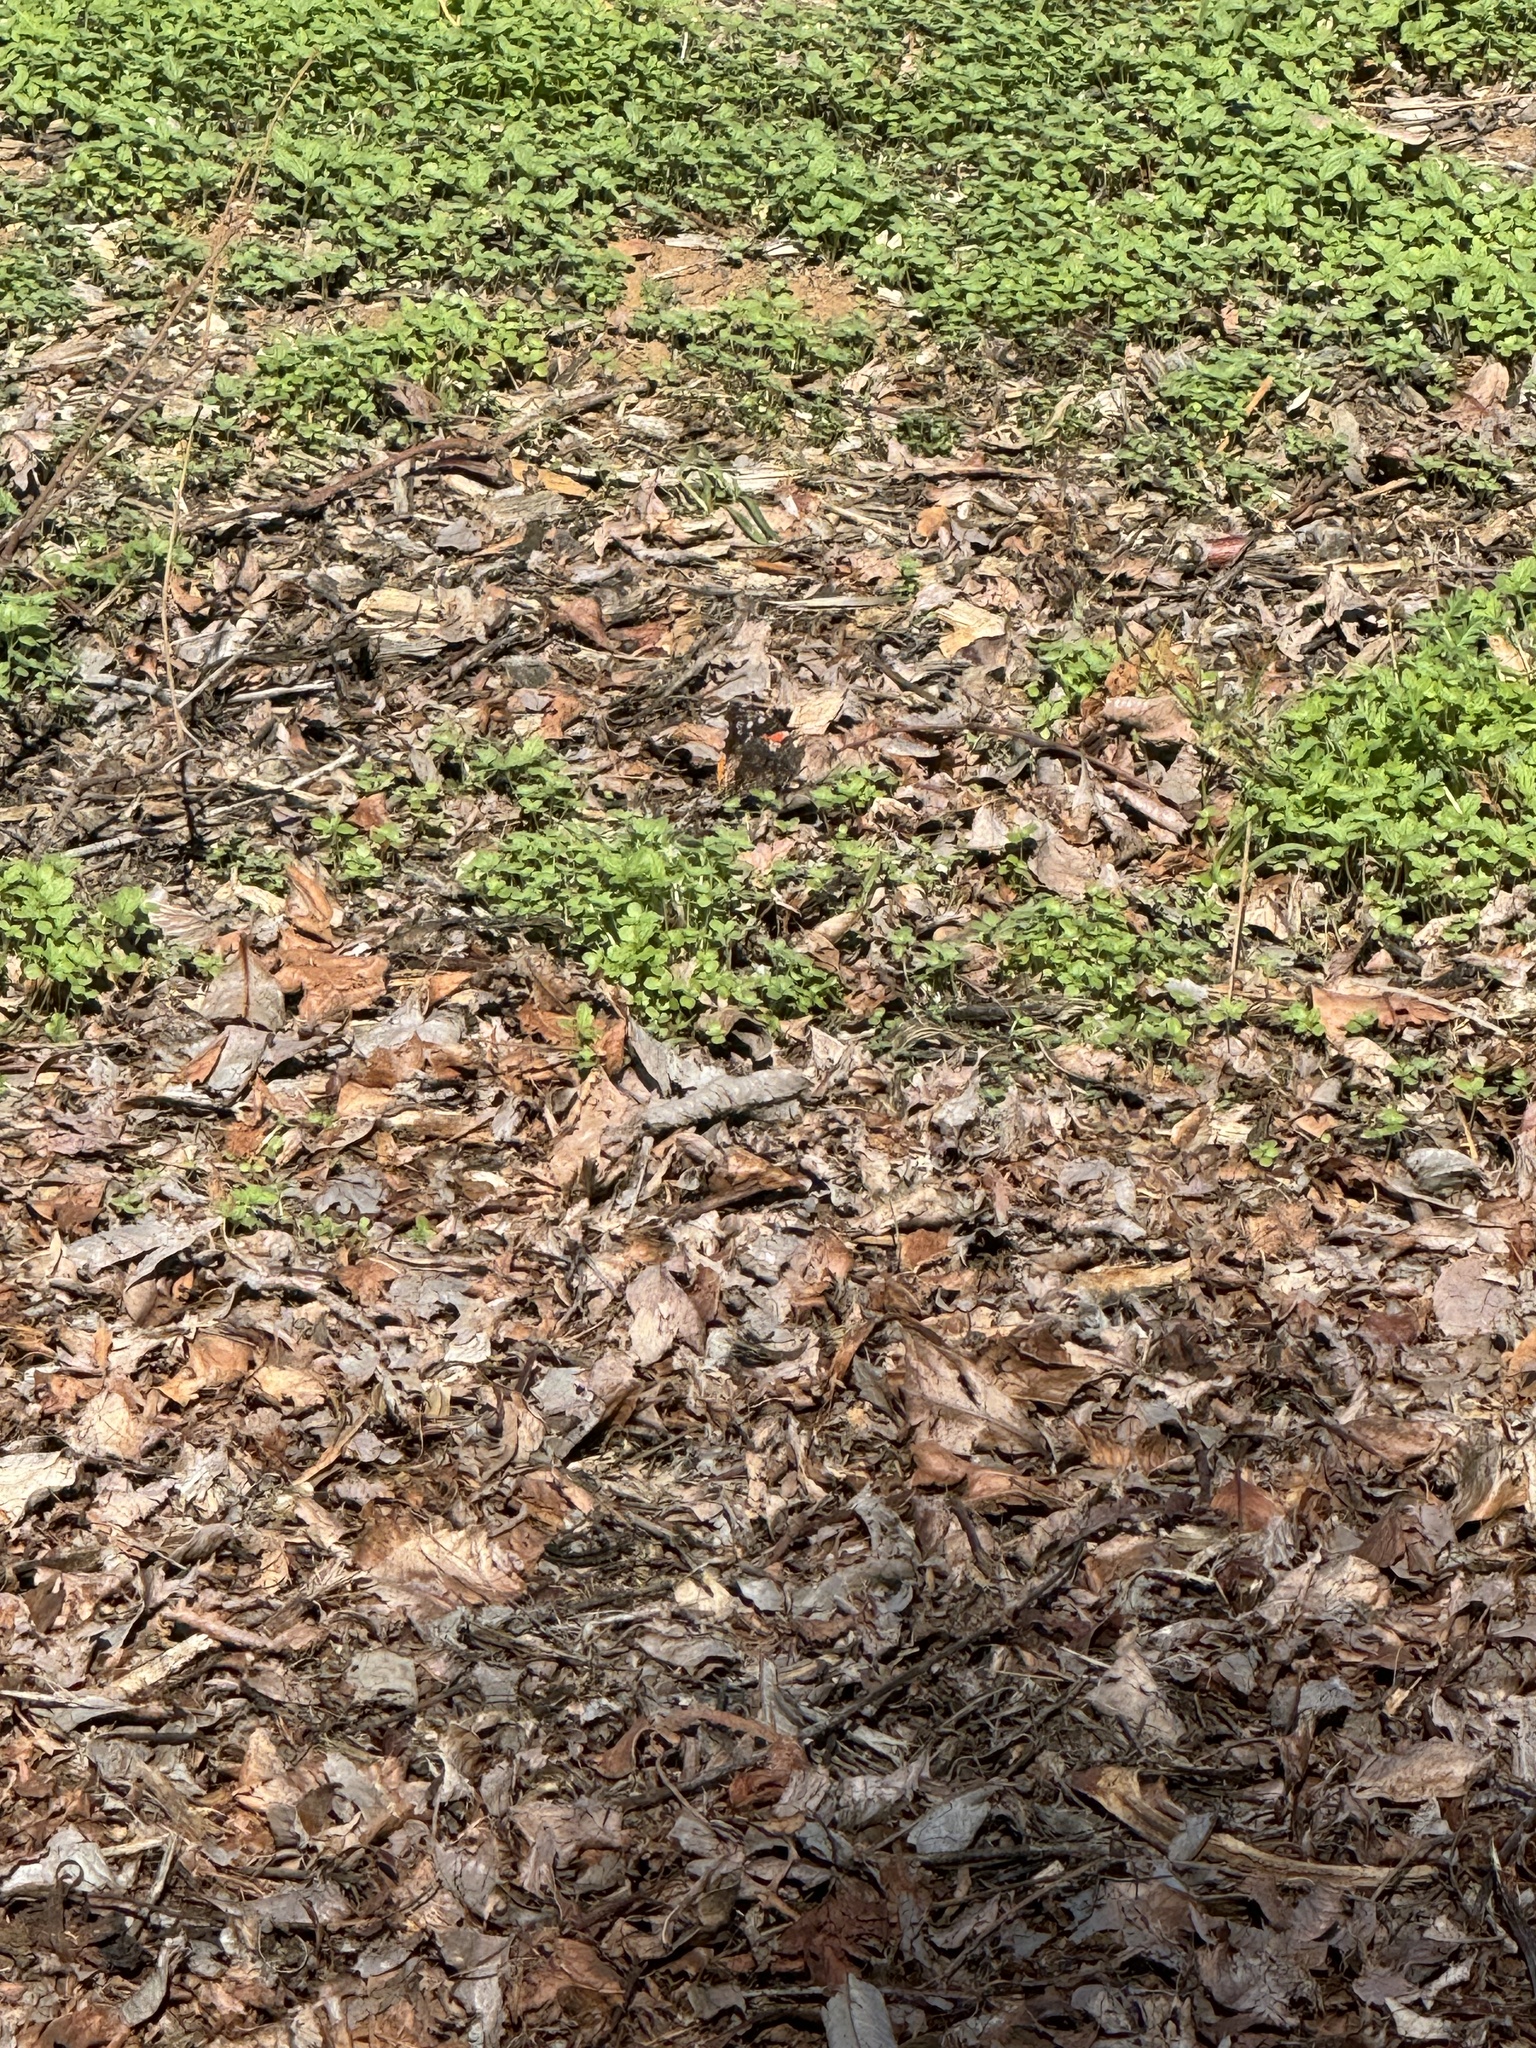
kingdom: Animalia
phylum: Arthropoda
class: Insecta
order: Lepidoptera
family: Nymphalidae
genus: Vanessa
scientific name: Vanessa atalanta
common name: Red admiral
